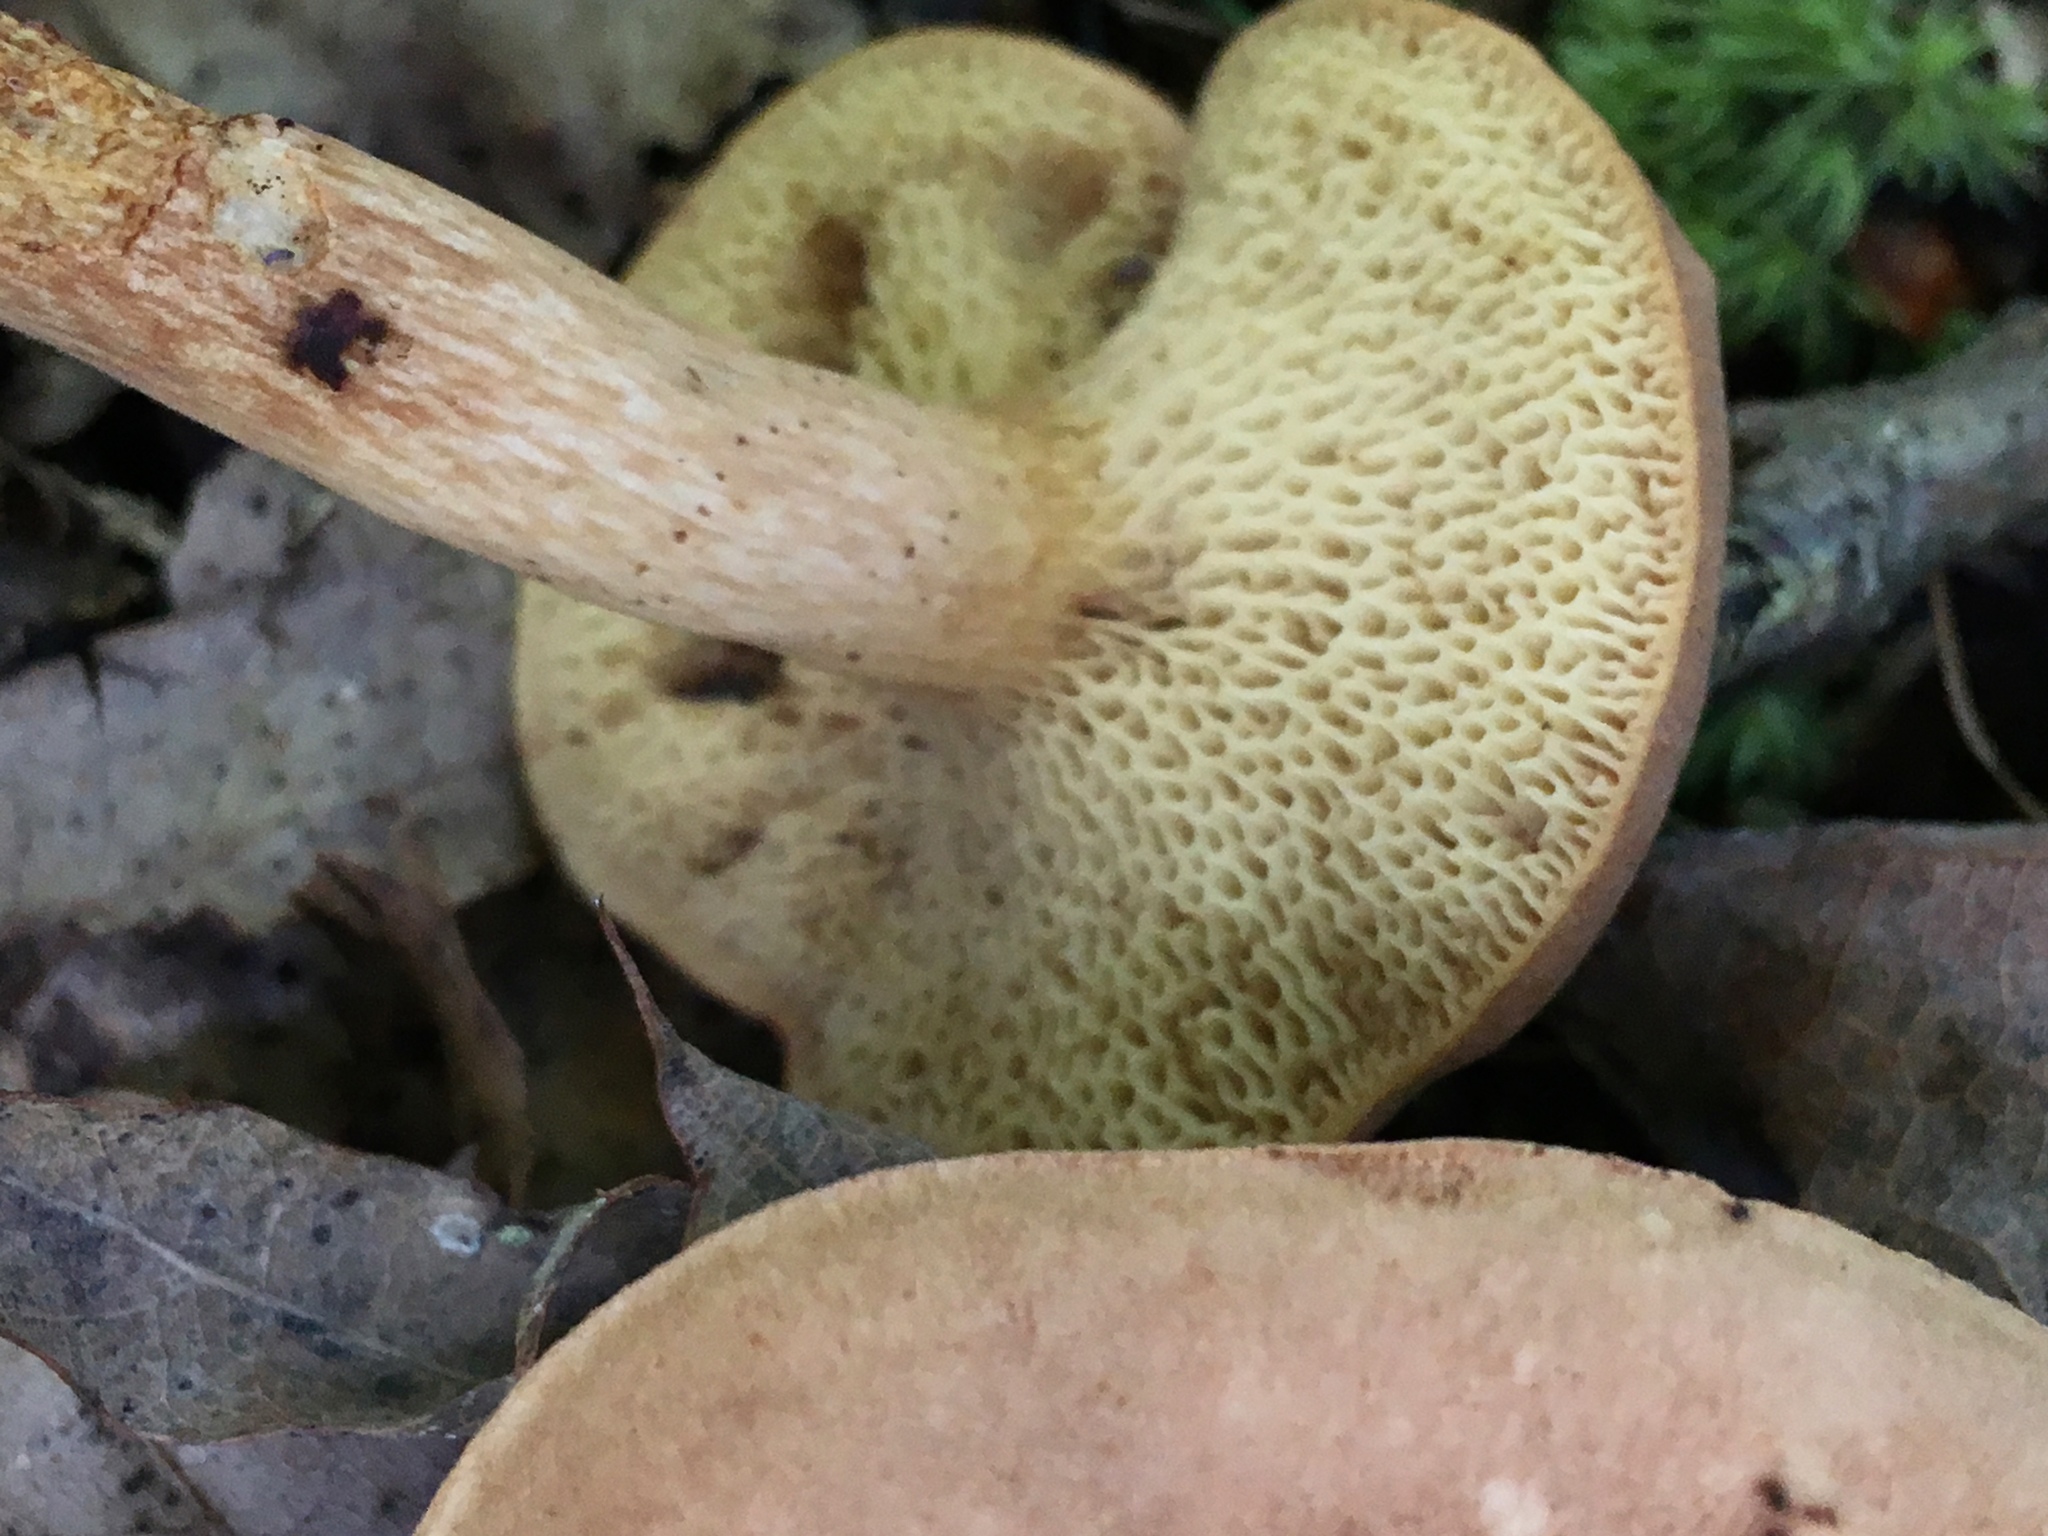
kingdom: Fungi
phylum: Basidiomycota
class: Agaricomycetes
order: Boletales
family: Boletaceae
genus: Bothia
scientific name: Bothia castanella
